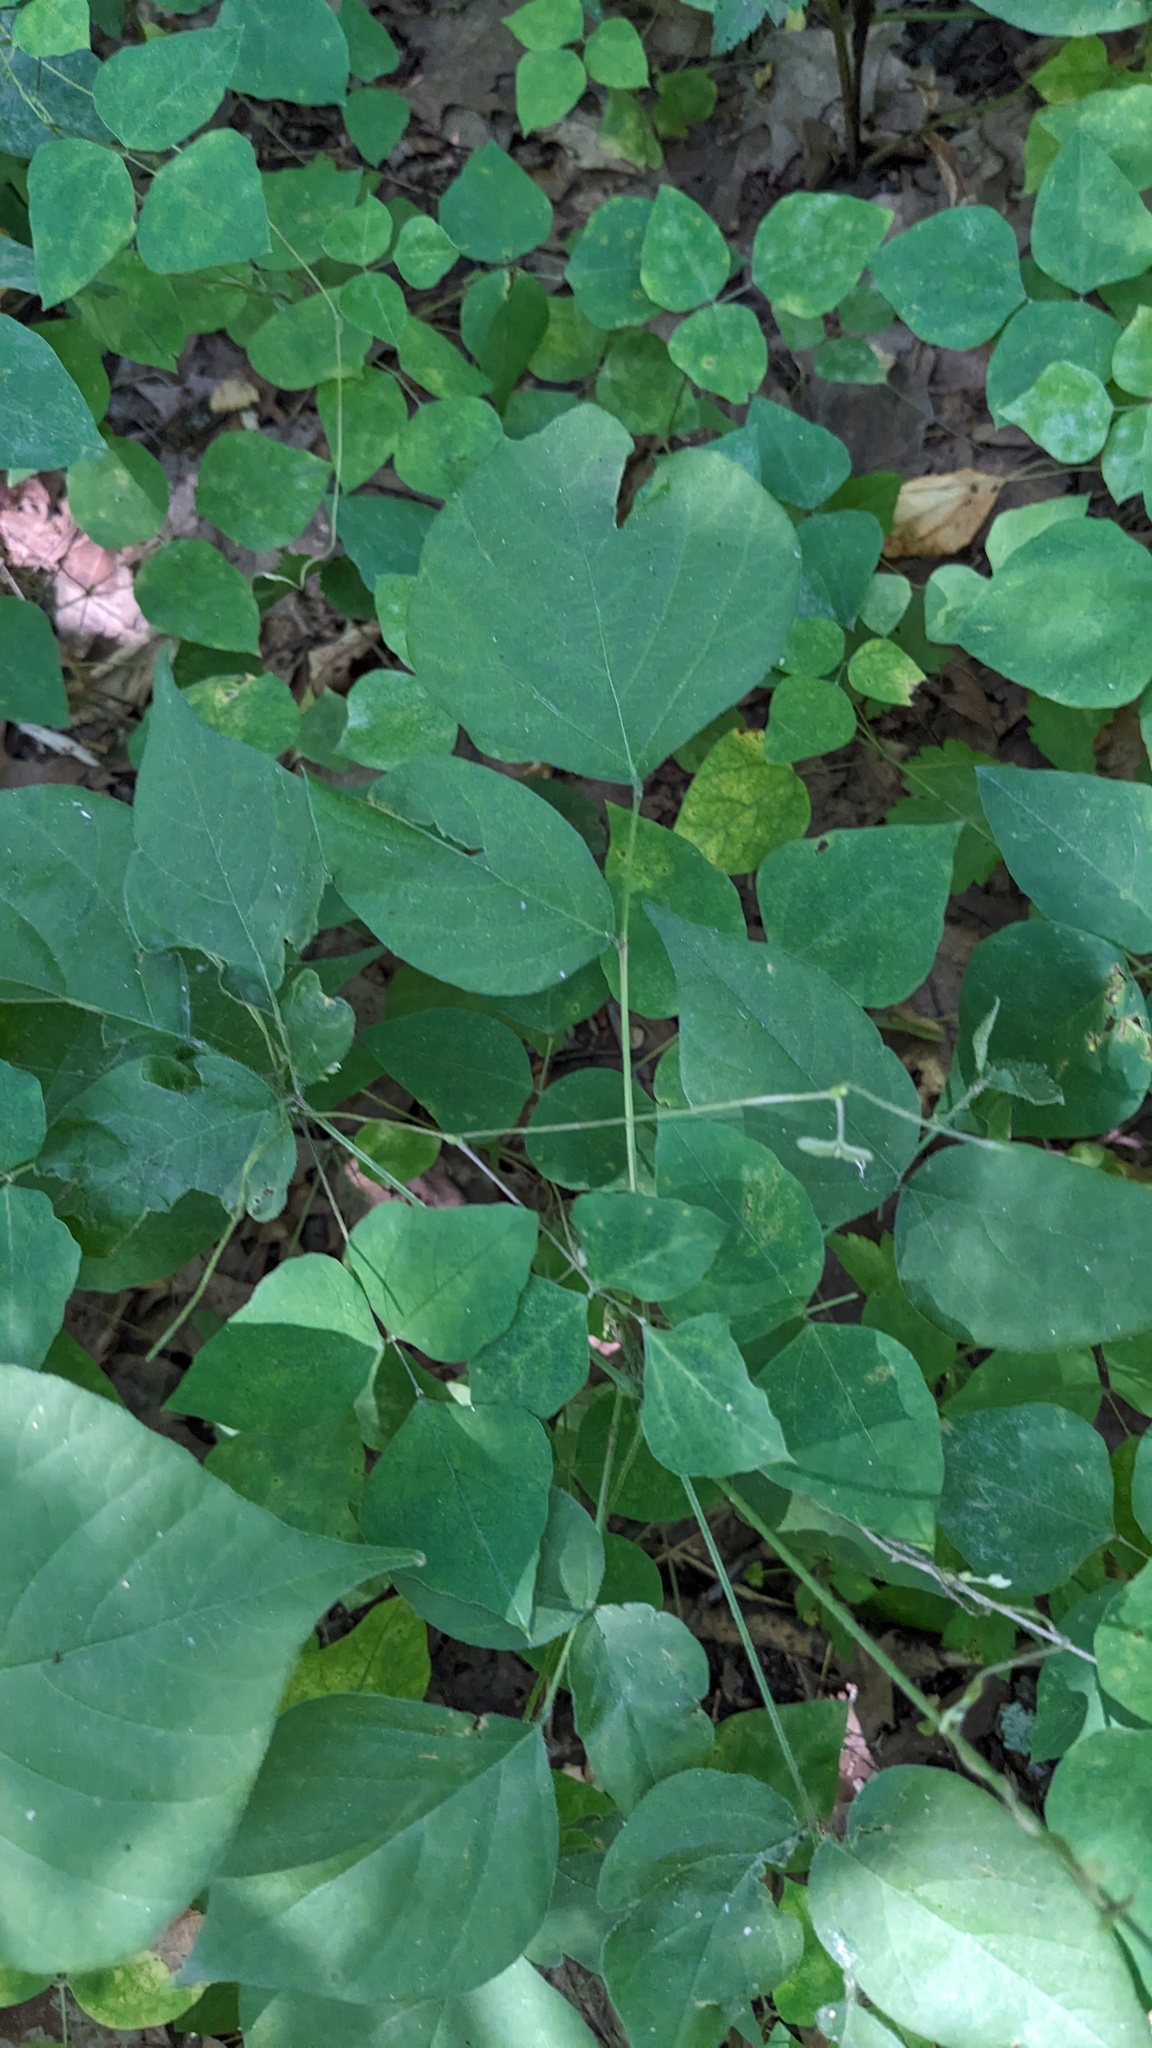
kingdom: Plantae
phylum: Tracheophyta
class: Magnoliopsida
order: Fabales
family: Fabaceae
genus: Hylodesmum
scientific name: Hylodesmum glutinosum
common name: Clustered-leaved tick-trefoil
